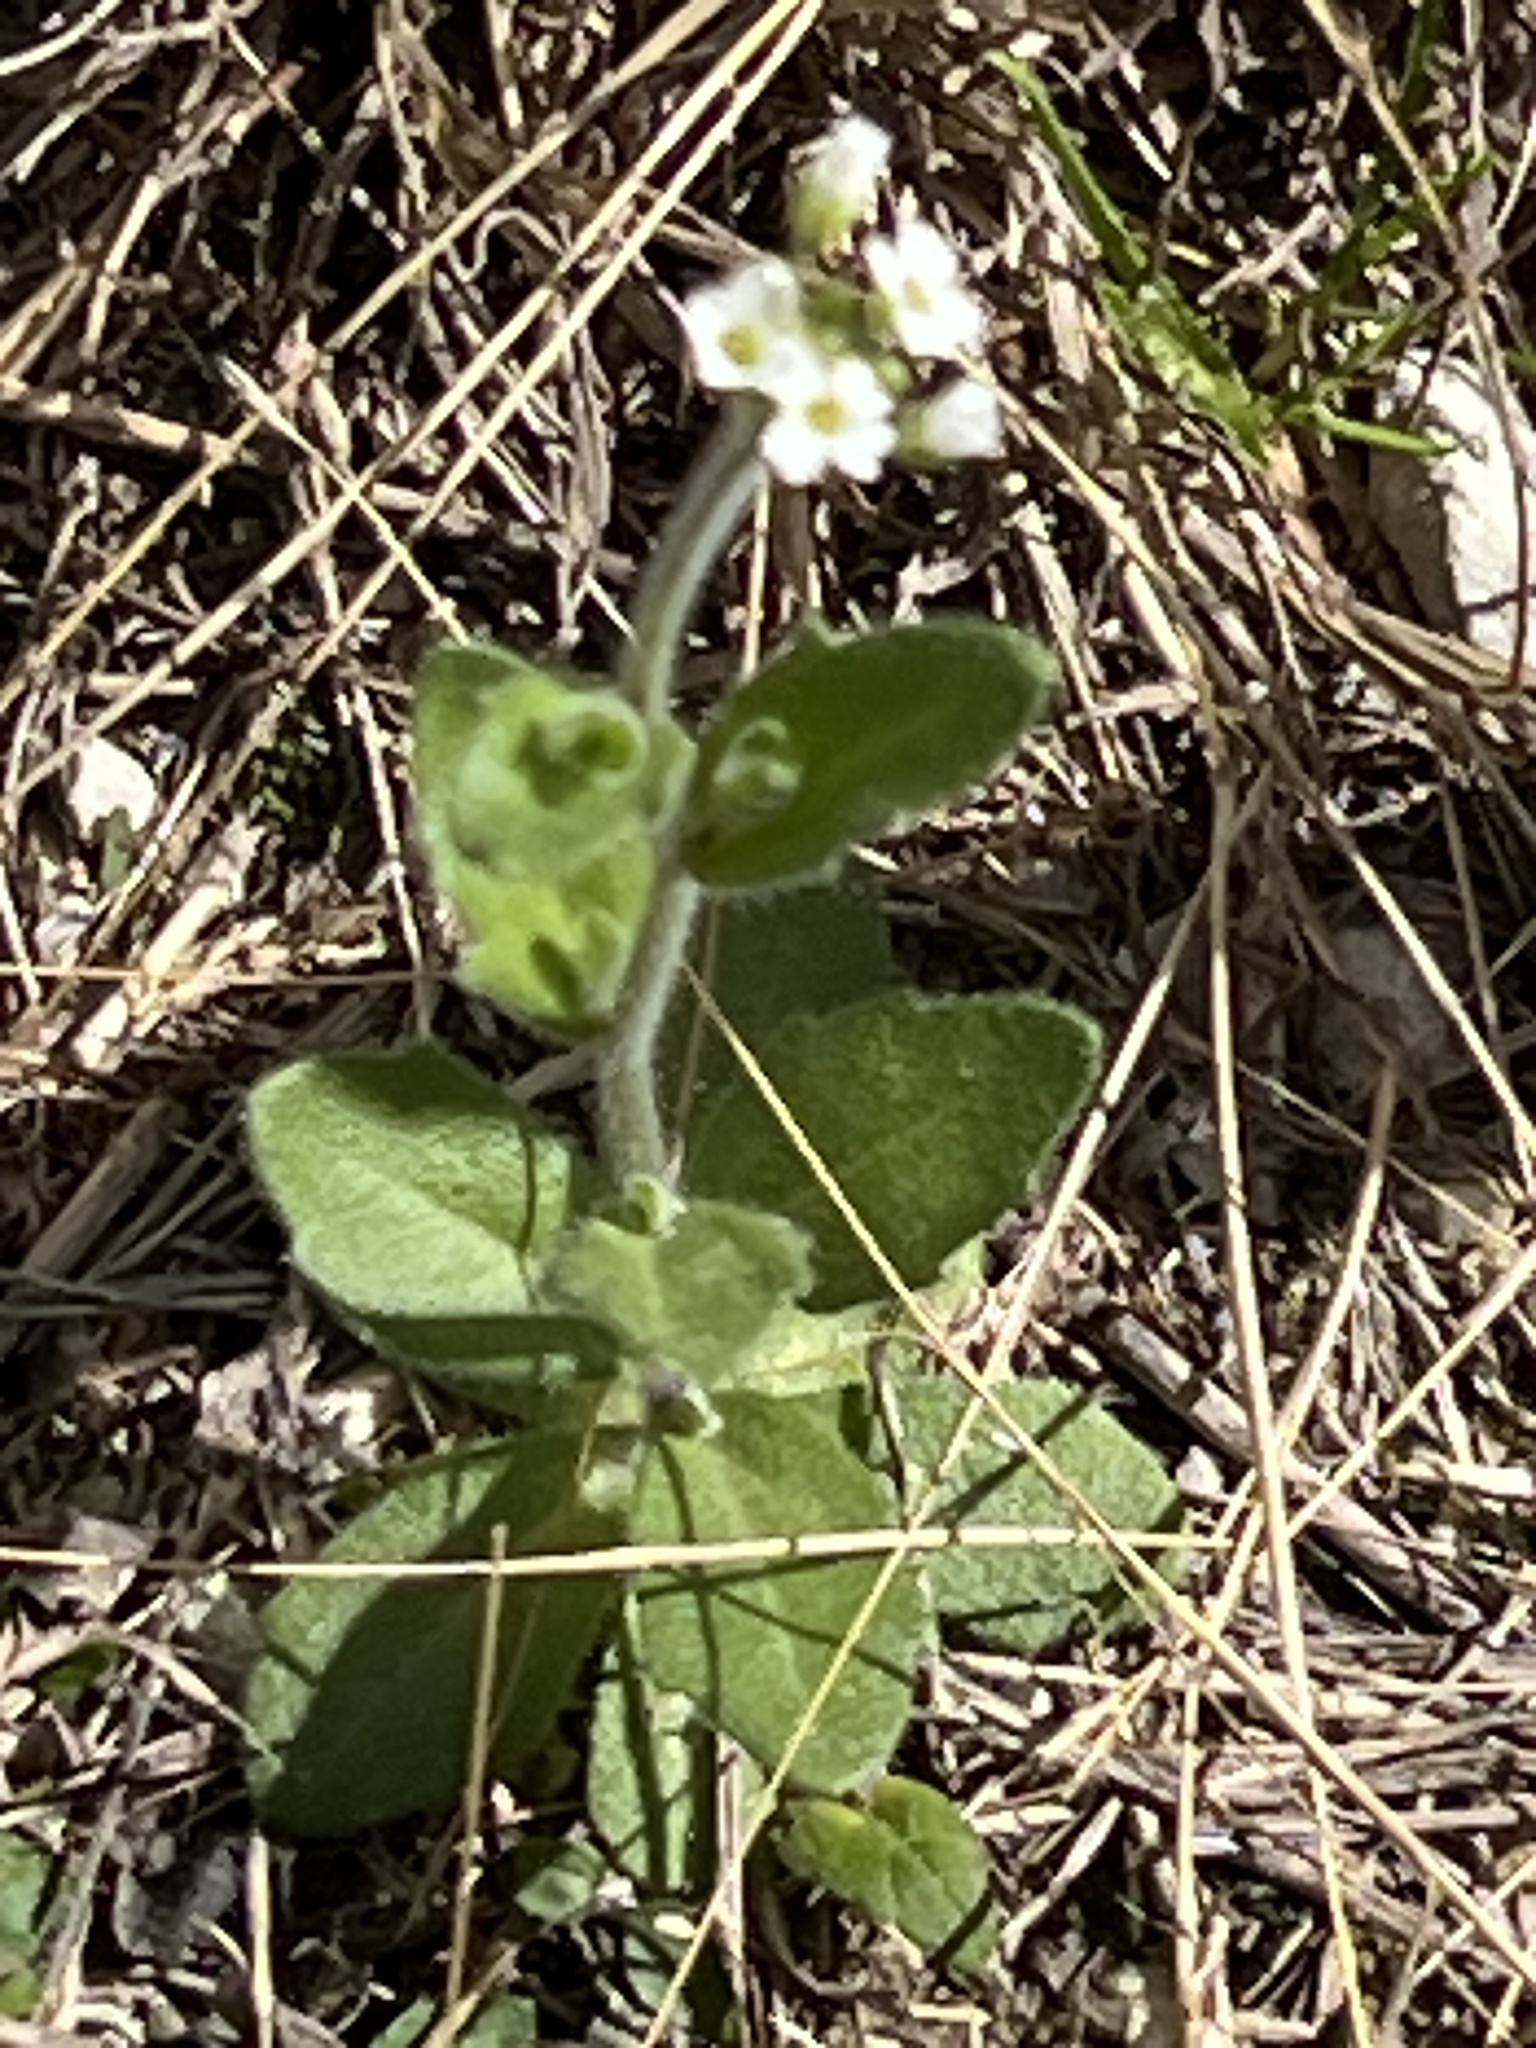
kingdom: Plantae
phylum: Tracheophyta
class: Magnoliopsida
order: Brassicales
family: Brassicaceae
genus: Tomostima
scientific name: Tomostima platycarpa
